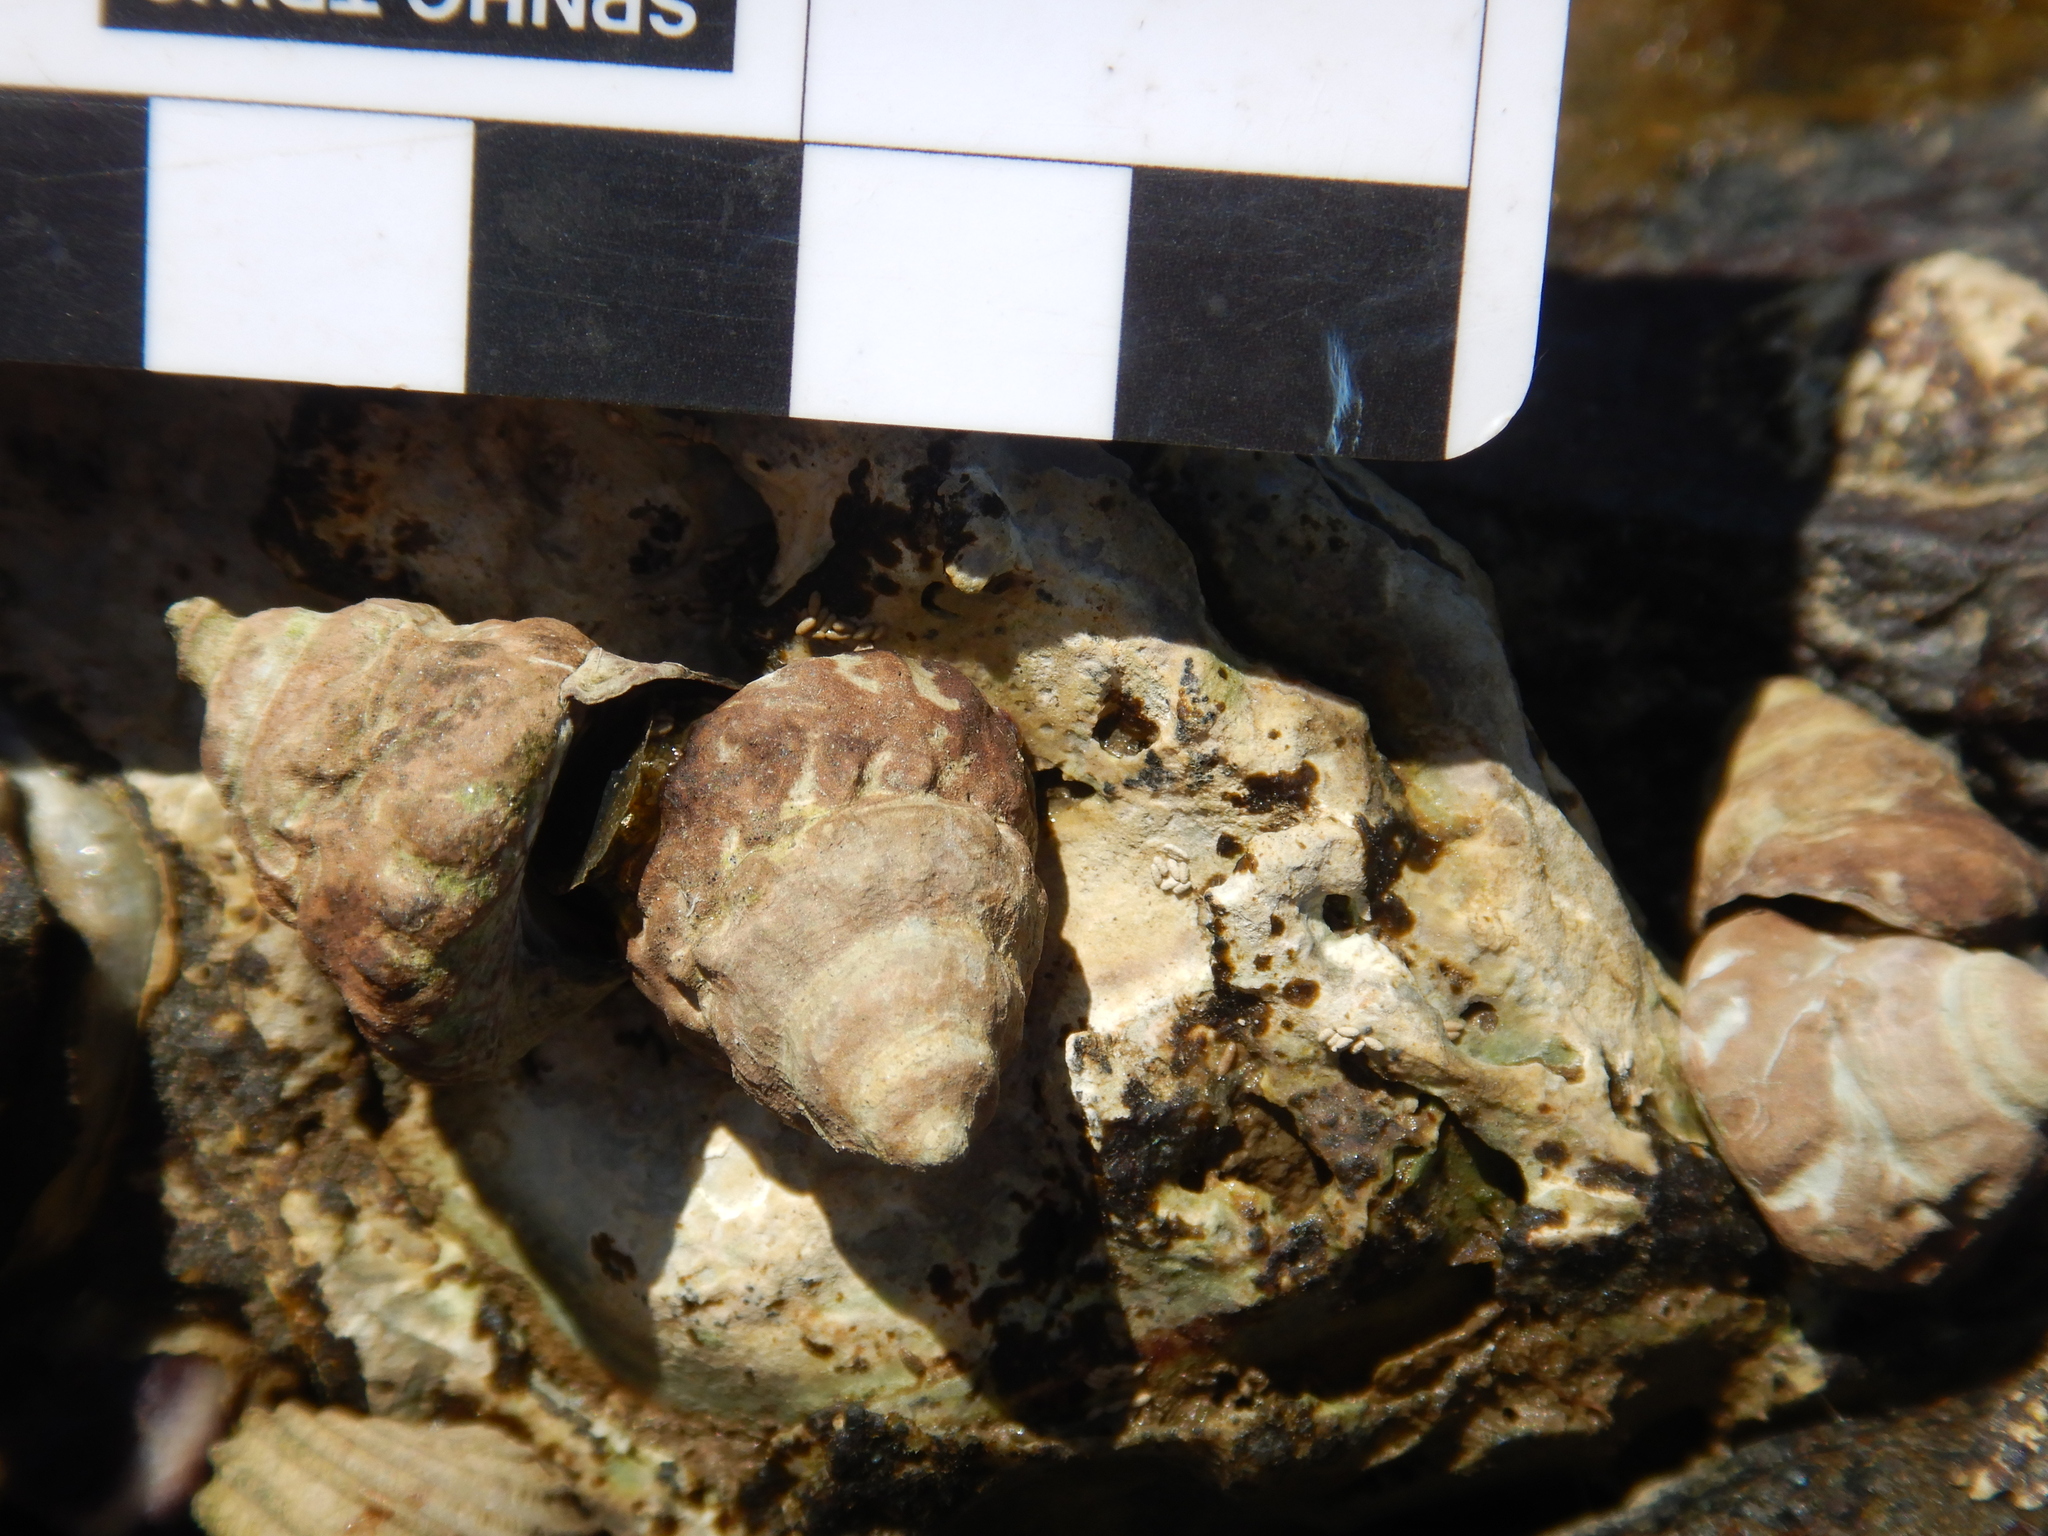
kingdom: Animalia
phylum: Mollusca
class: Gastropoda
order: Littorinimorpha
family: Littorinidae
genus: Bembicium
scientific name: Bembicium auratum
